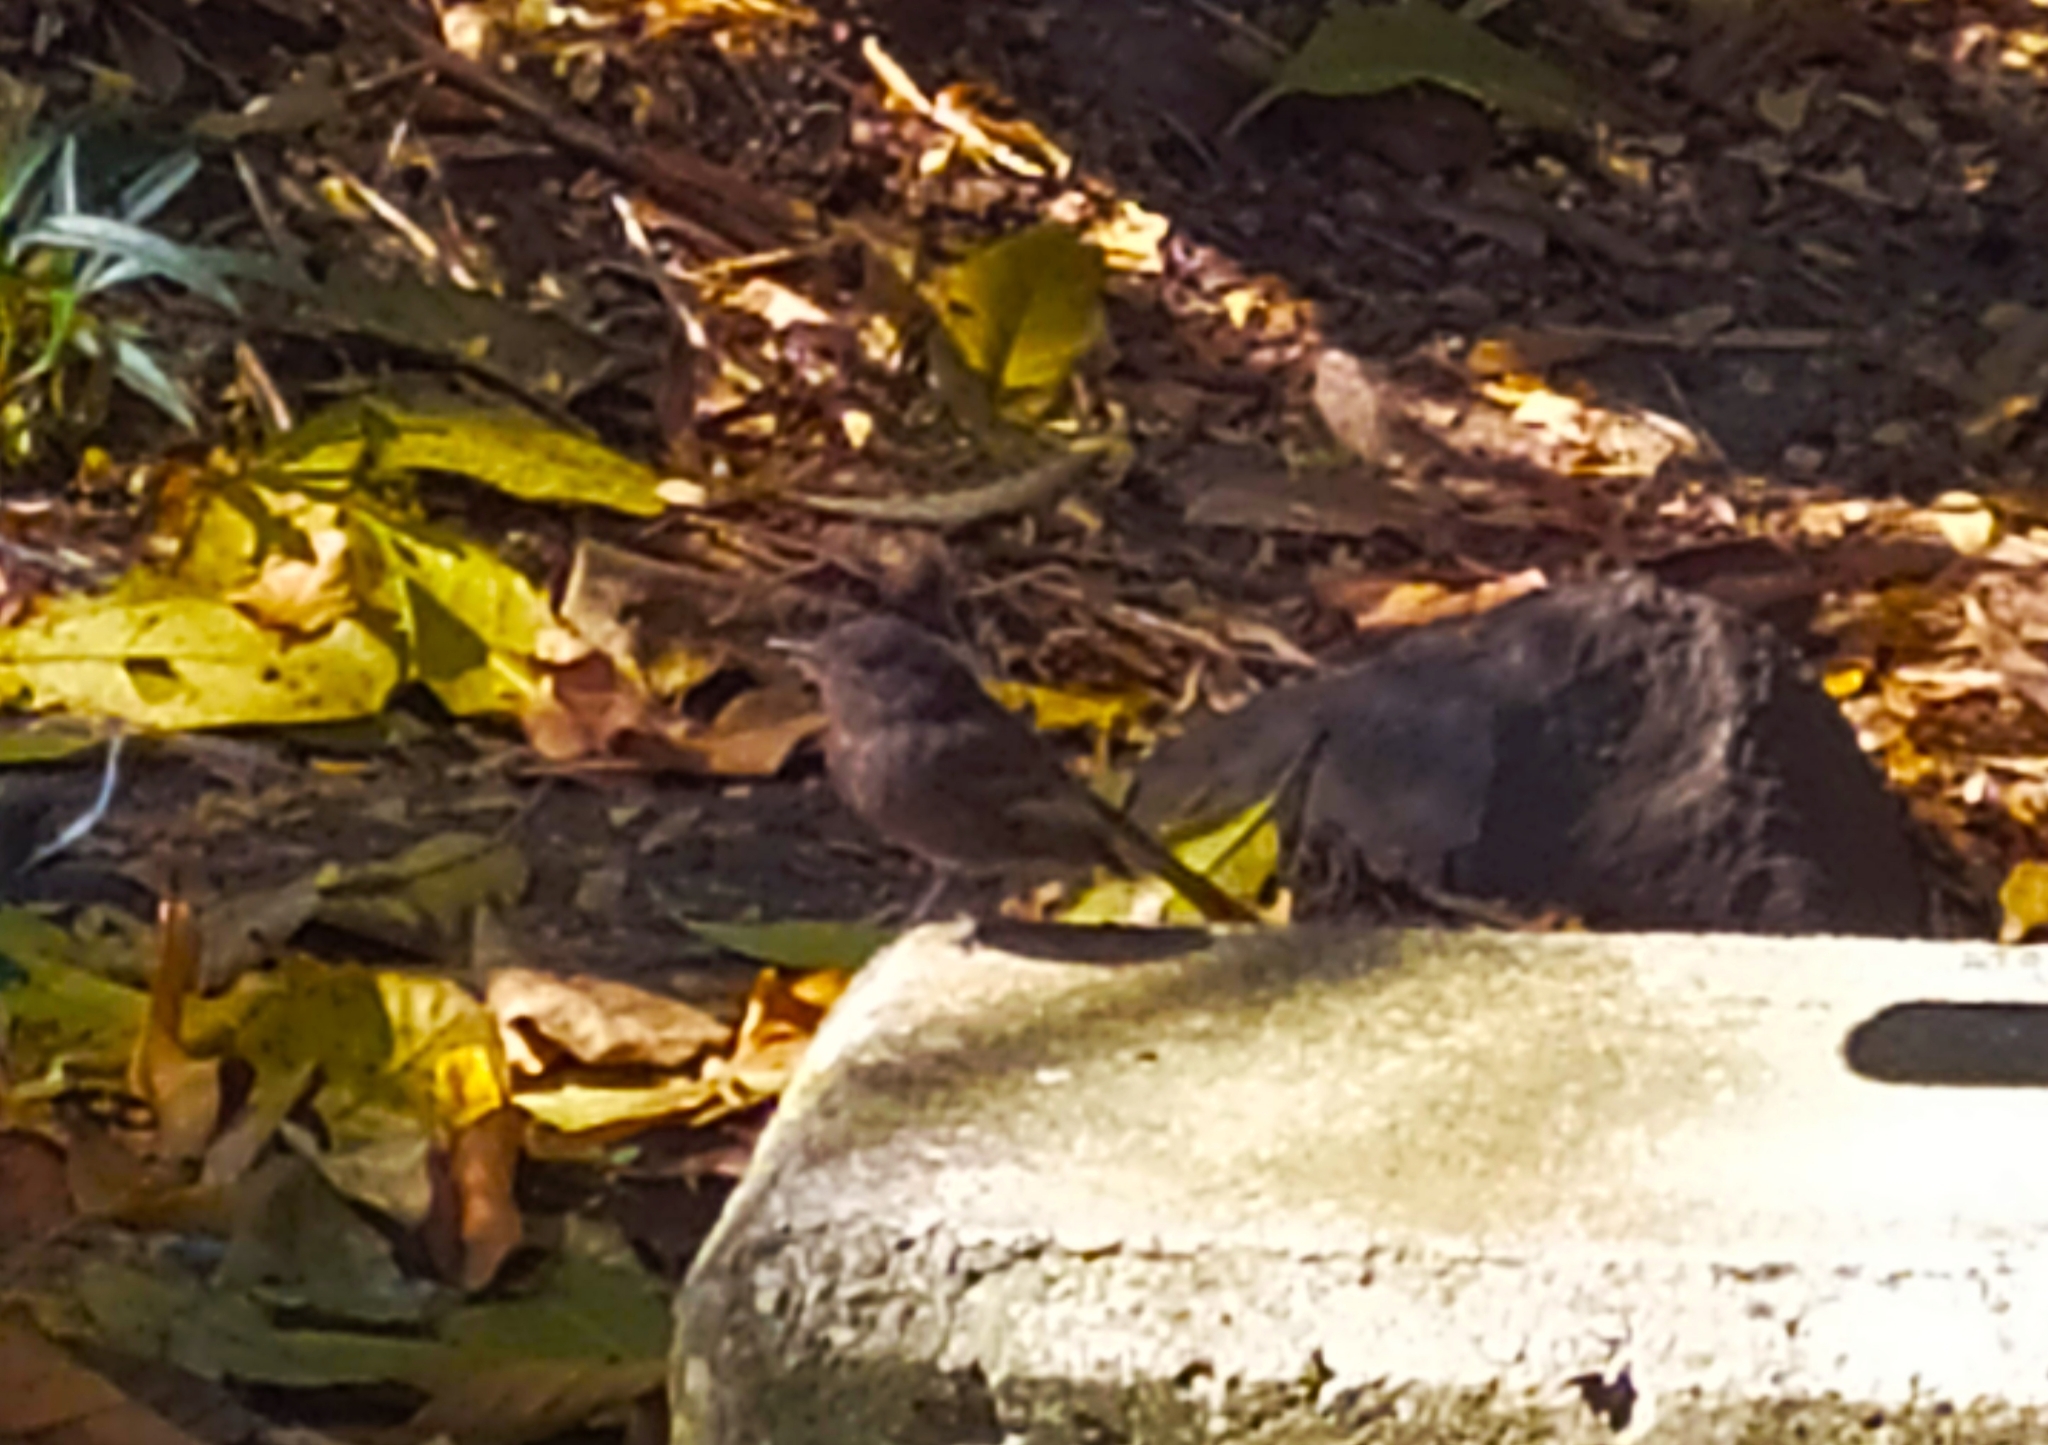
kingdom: Animalia
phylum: Chordata
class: Aves
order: Passeriformes
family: Tyrannidae
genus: Sayornis
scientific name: Sayornis nigricans
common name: Black phoebe
